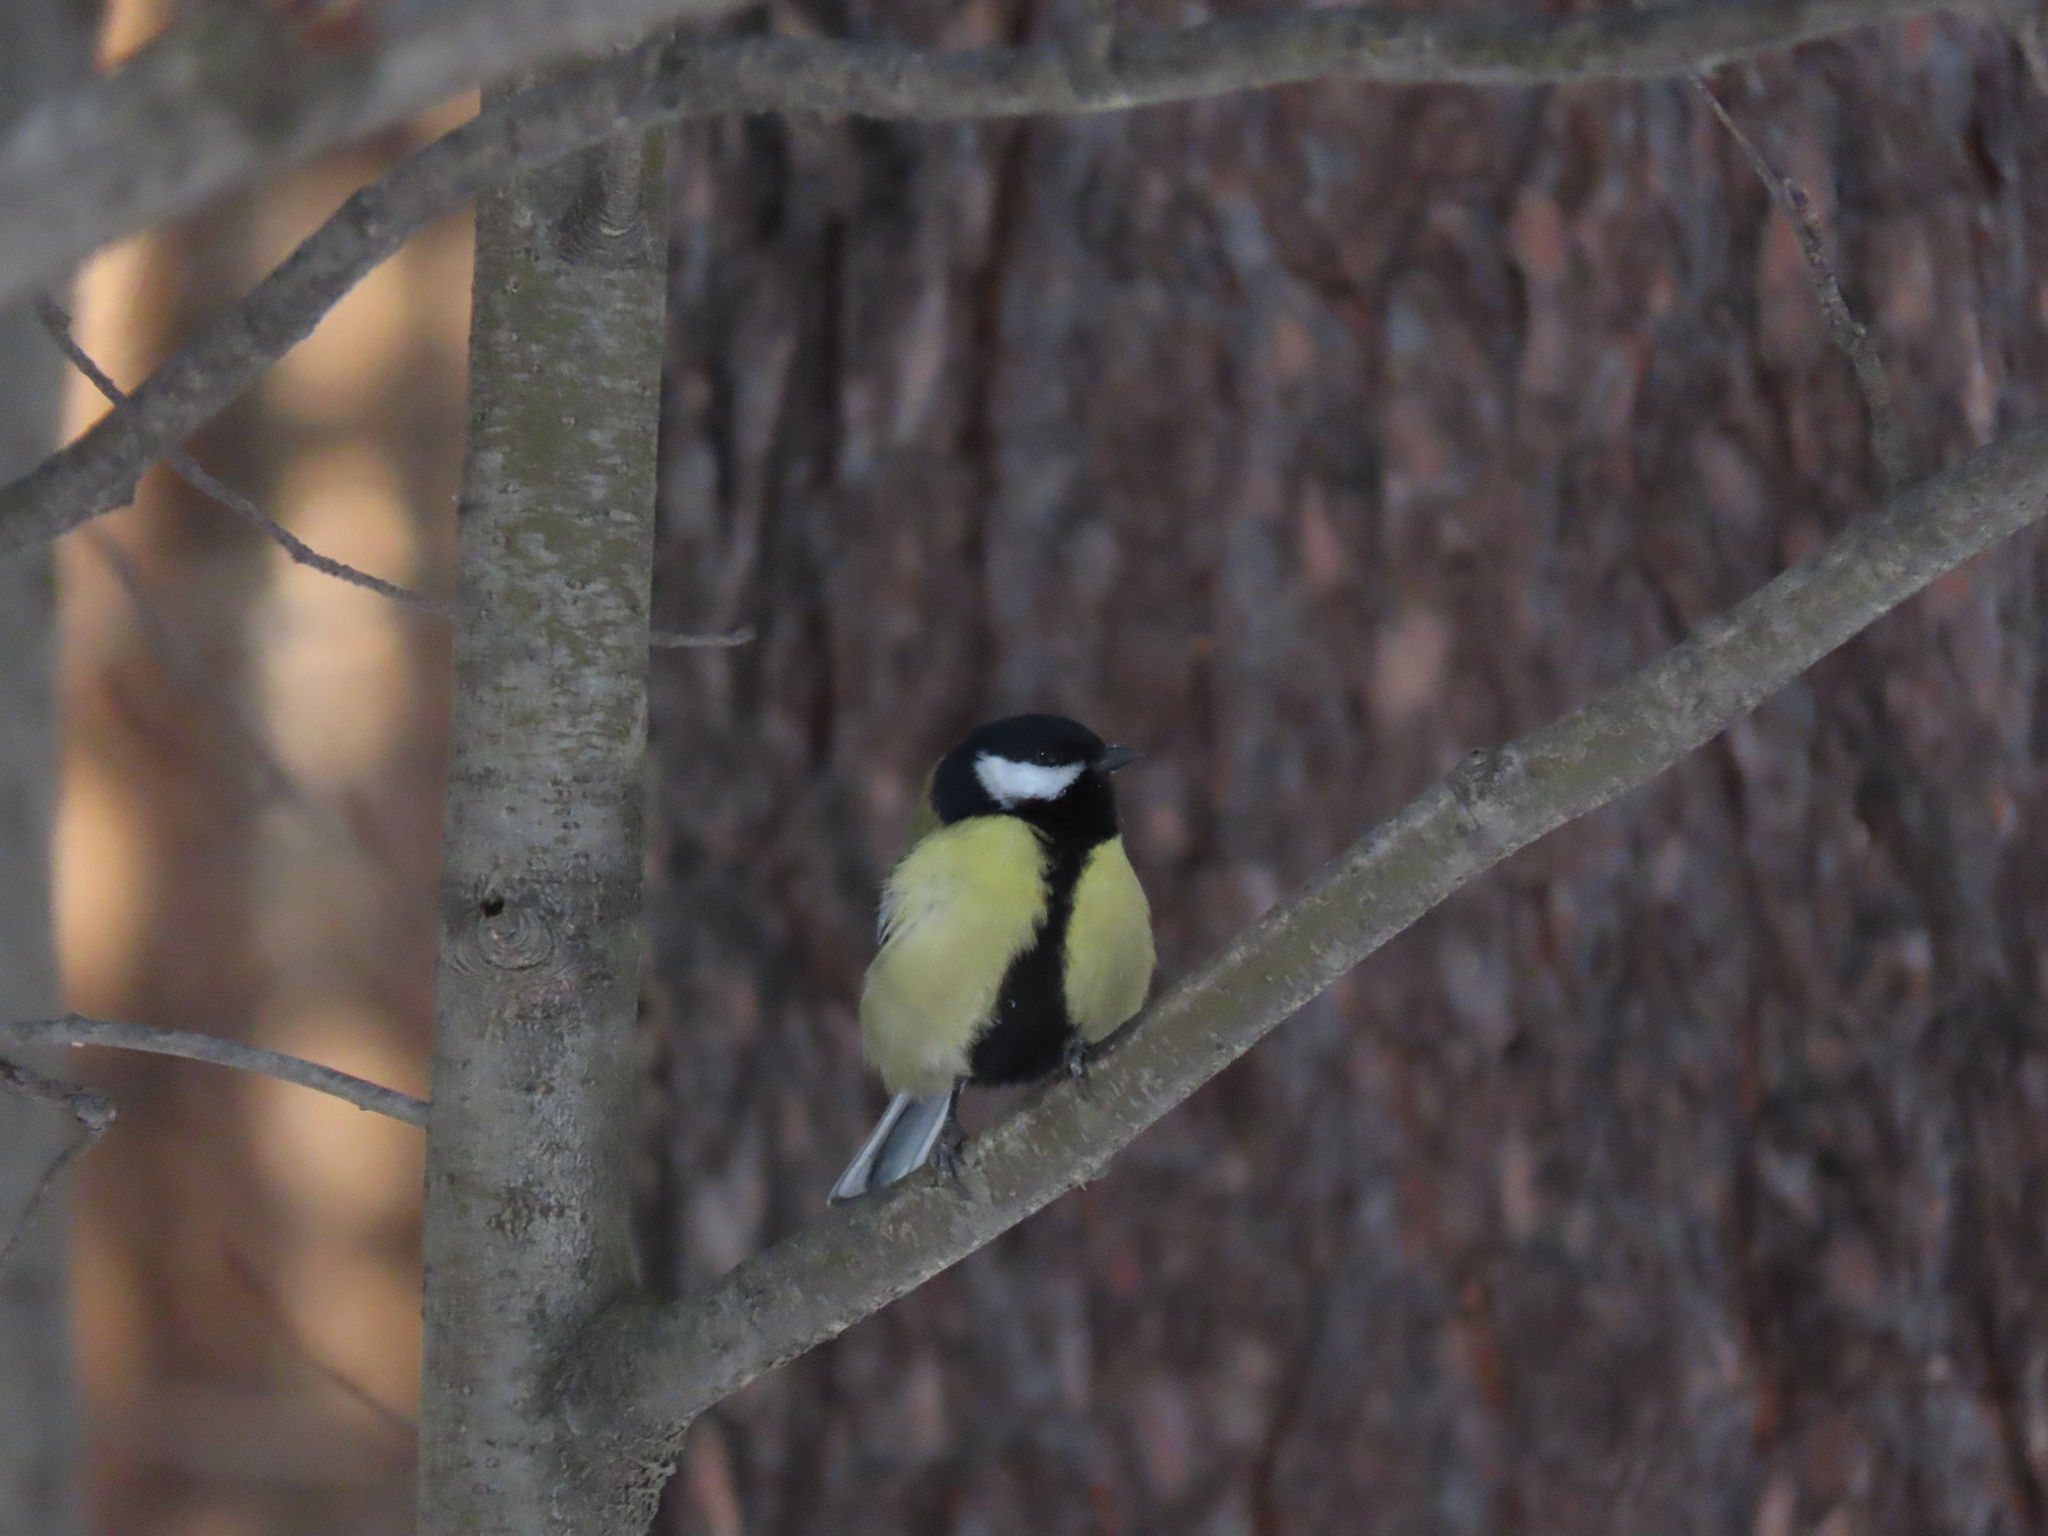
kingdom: Animalia
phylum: Chordata
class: Aves
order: Passeriformes
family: Paridae
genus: Parus
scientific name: Parus major
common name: Great tit
